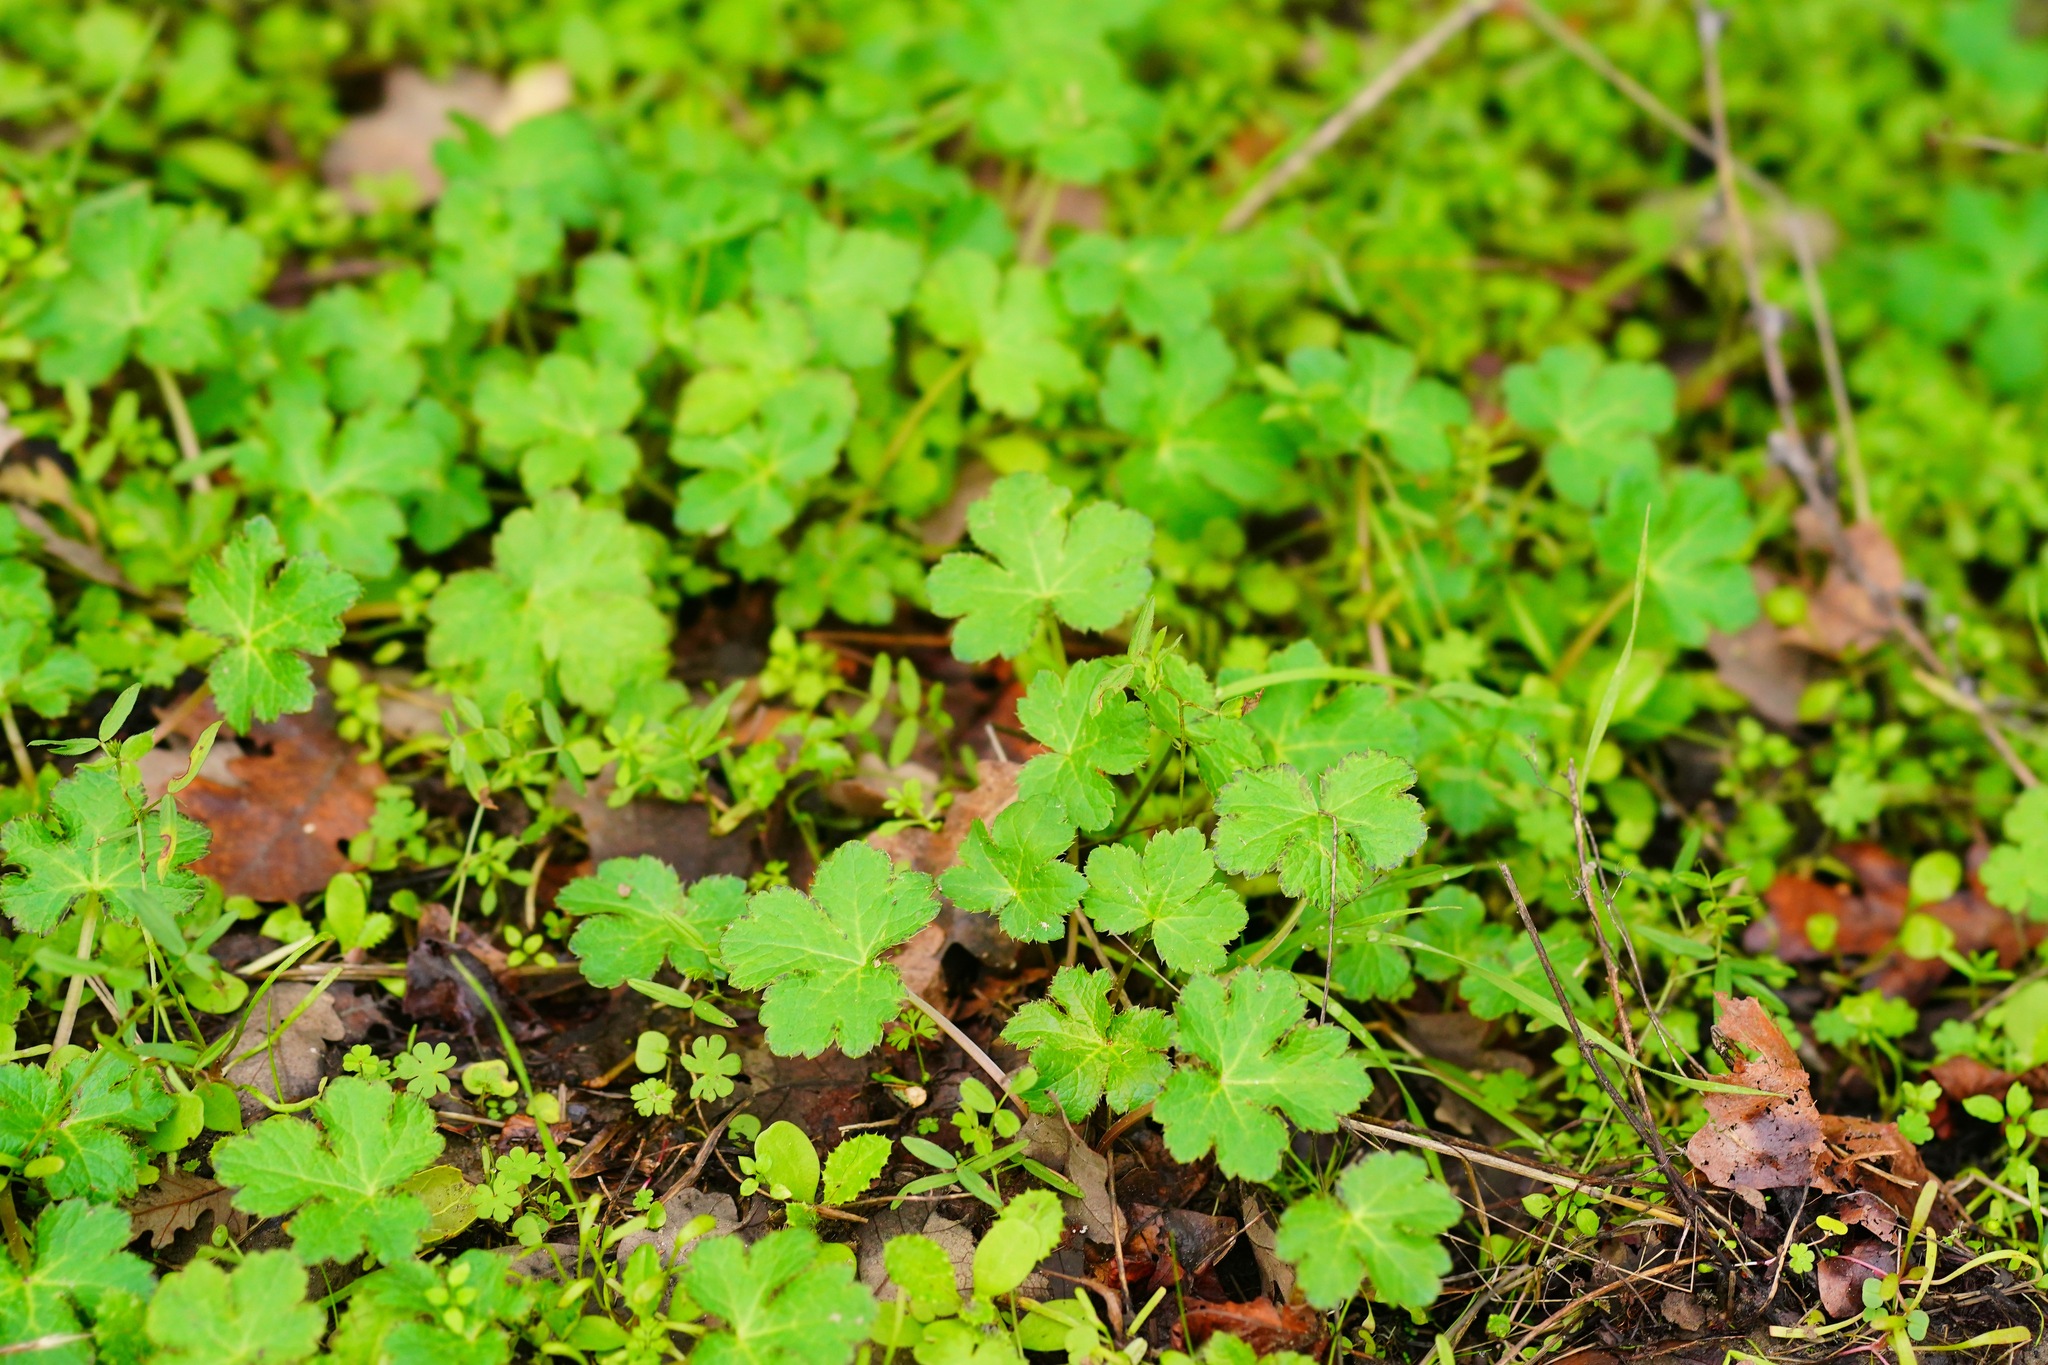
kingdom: Plantae
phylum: Tracheophyta
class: Magnoliopsida
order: Apiales
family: Apiaceae
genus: Sanicula
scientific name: Sanicula crassicaulis
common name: Western snakeroot
